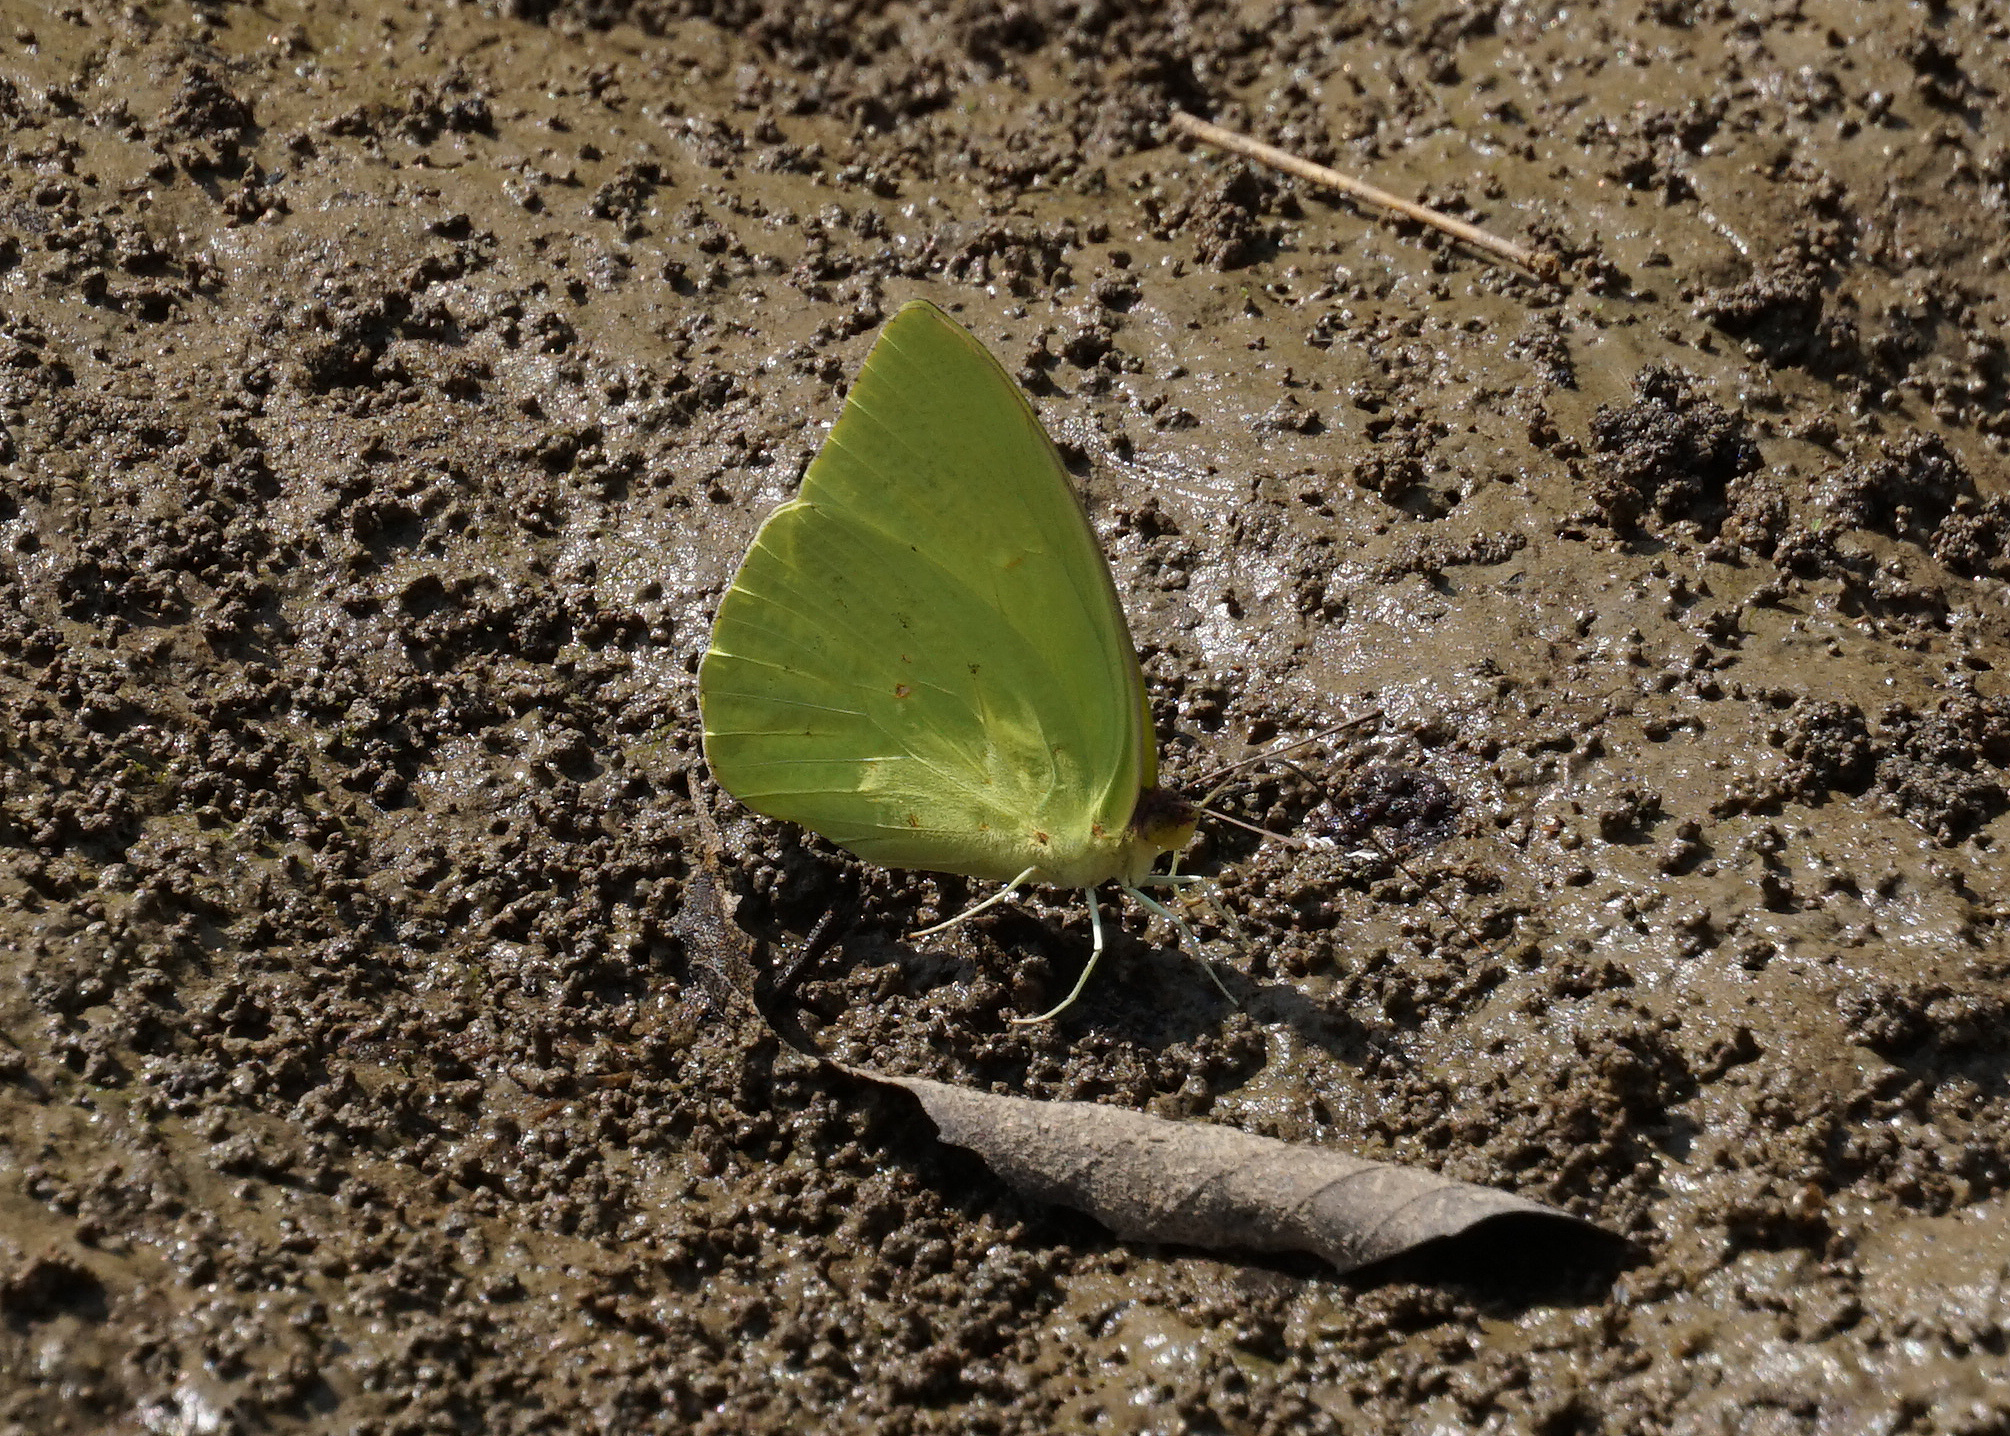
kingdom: Animalia
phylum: Arthropoda
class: Insecta
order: Lepidoptera
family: Pieridae
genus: Phoebis
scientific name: Phoebis sennae
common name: Cloudless sulphur
